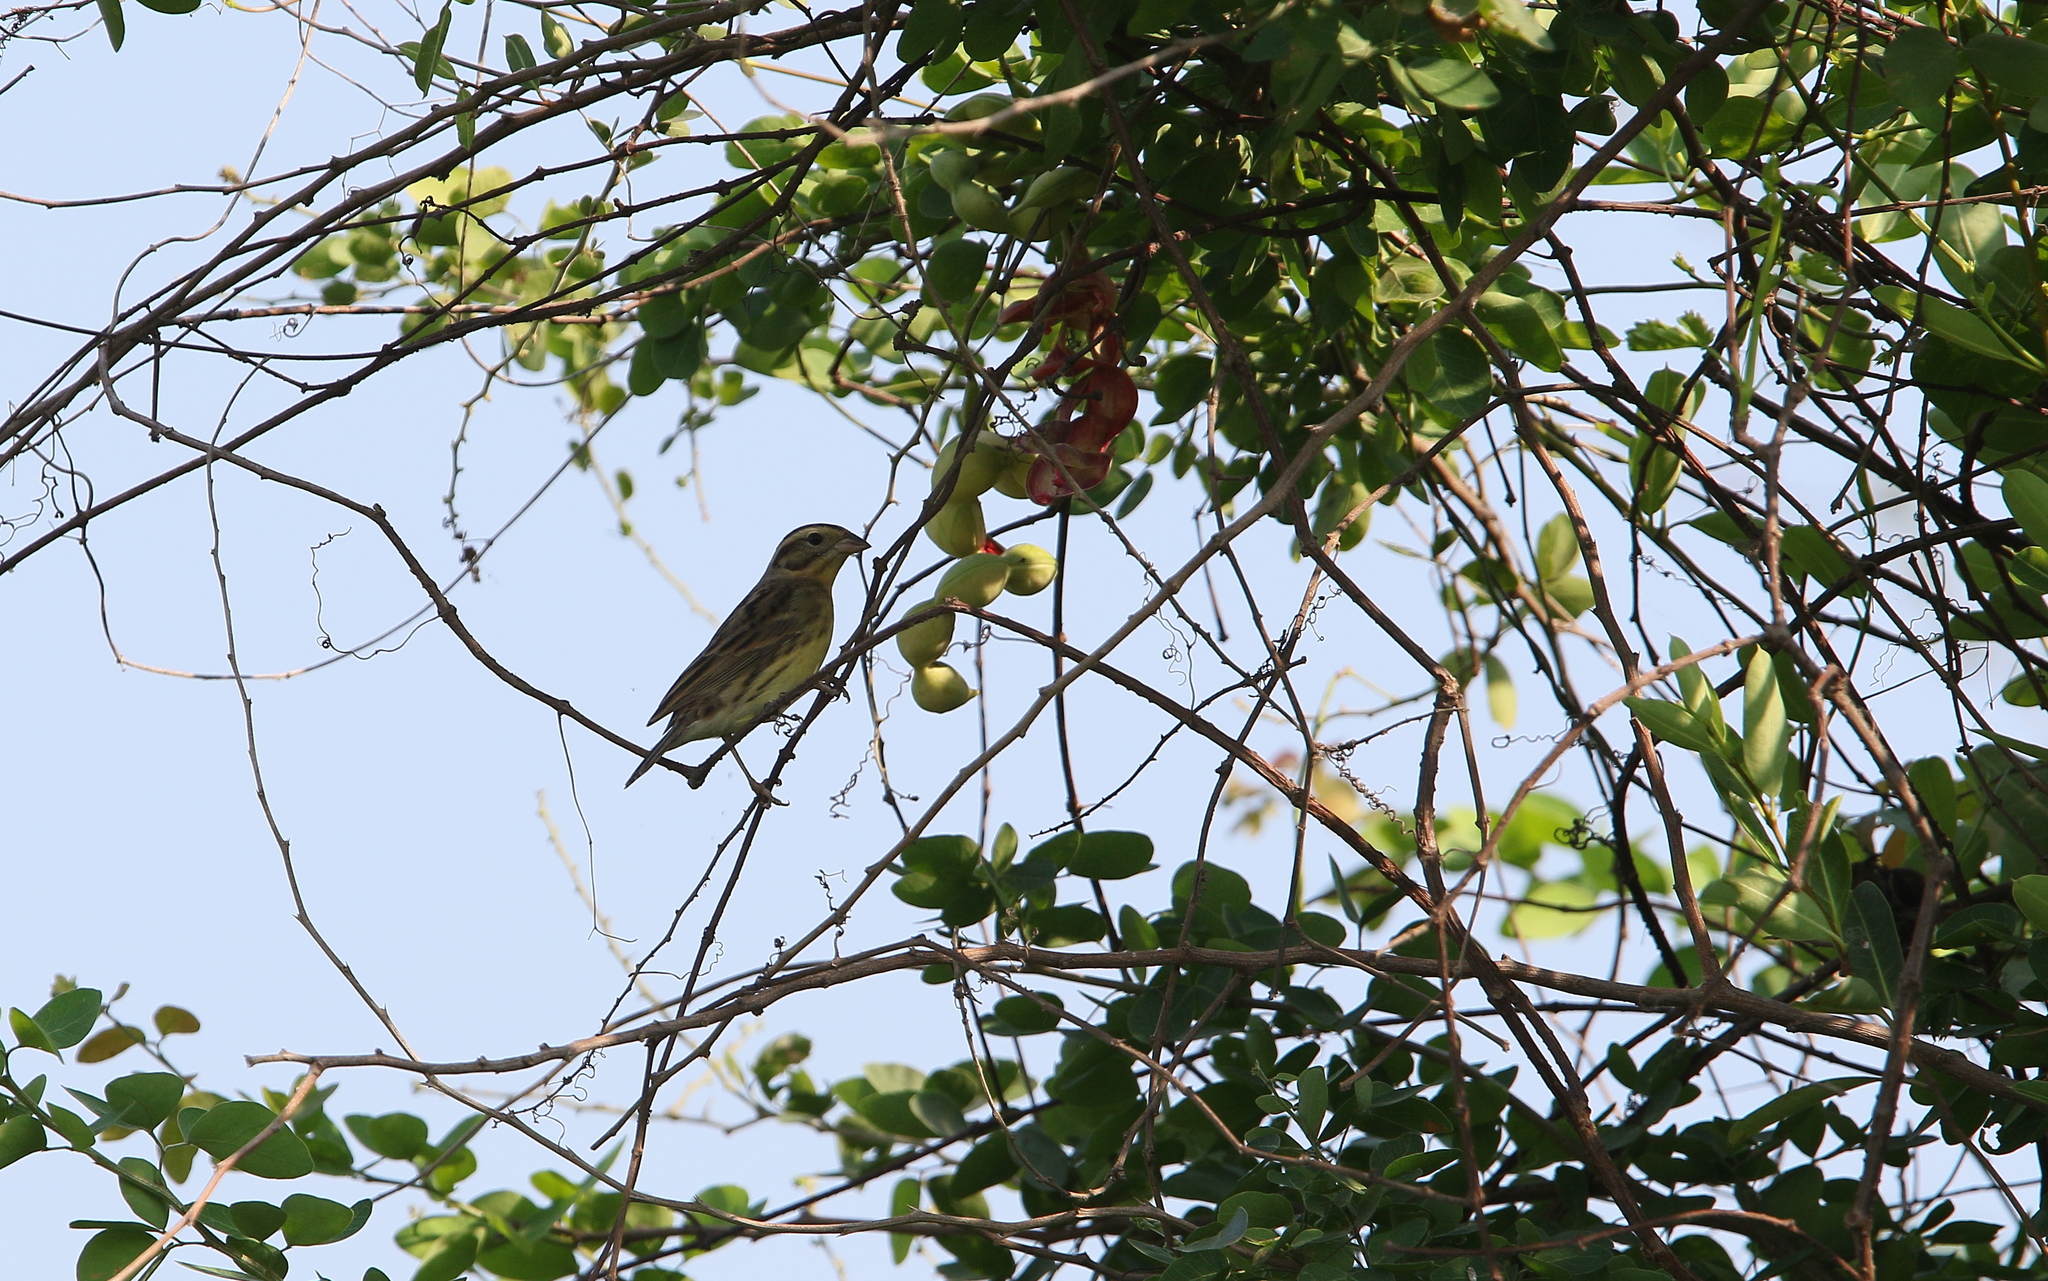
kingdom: Animalia
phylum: Chordata
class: Aves
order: Passeriformes
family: Emberizidae
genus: Emberiza
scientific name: Emberiza aureola
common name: Yellow-breasted bunting
